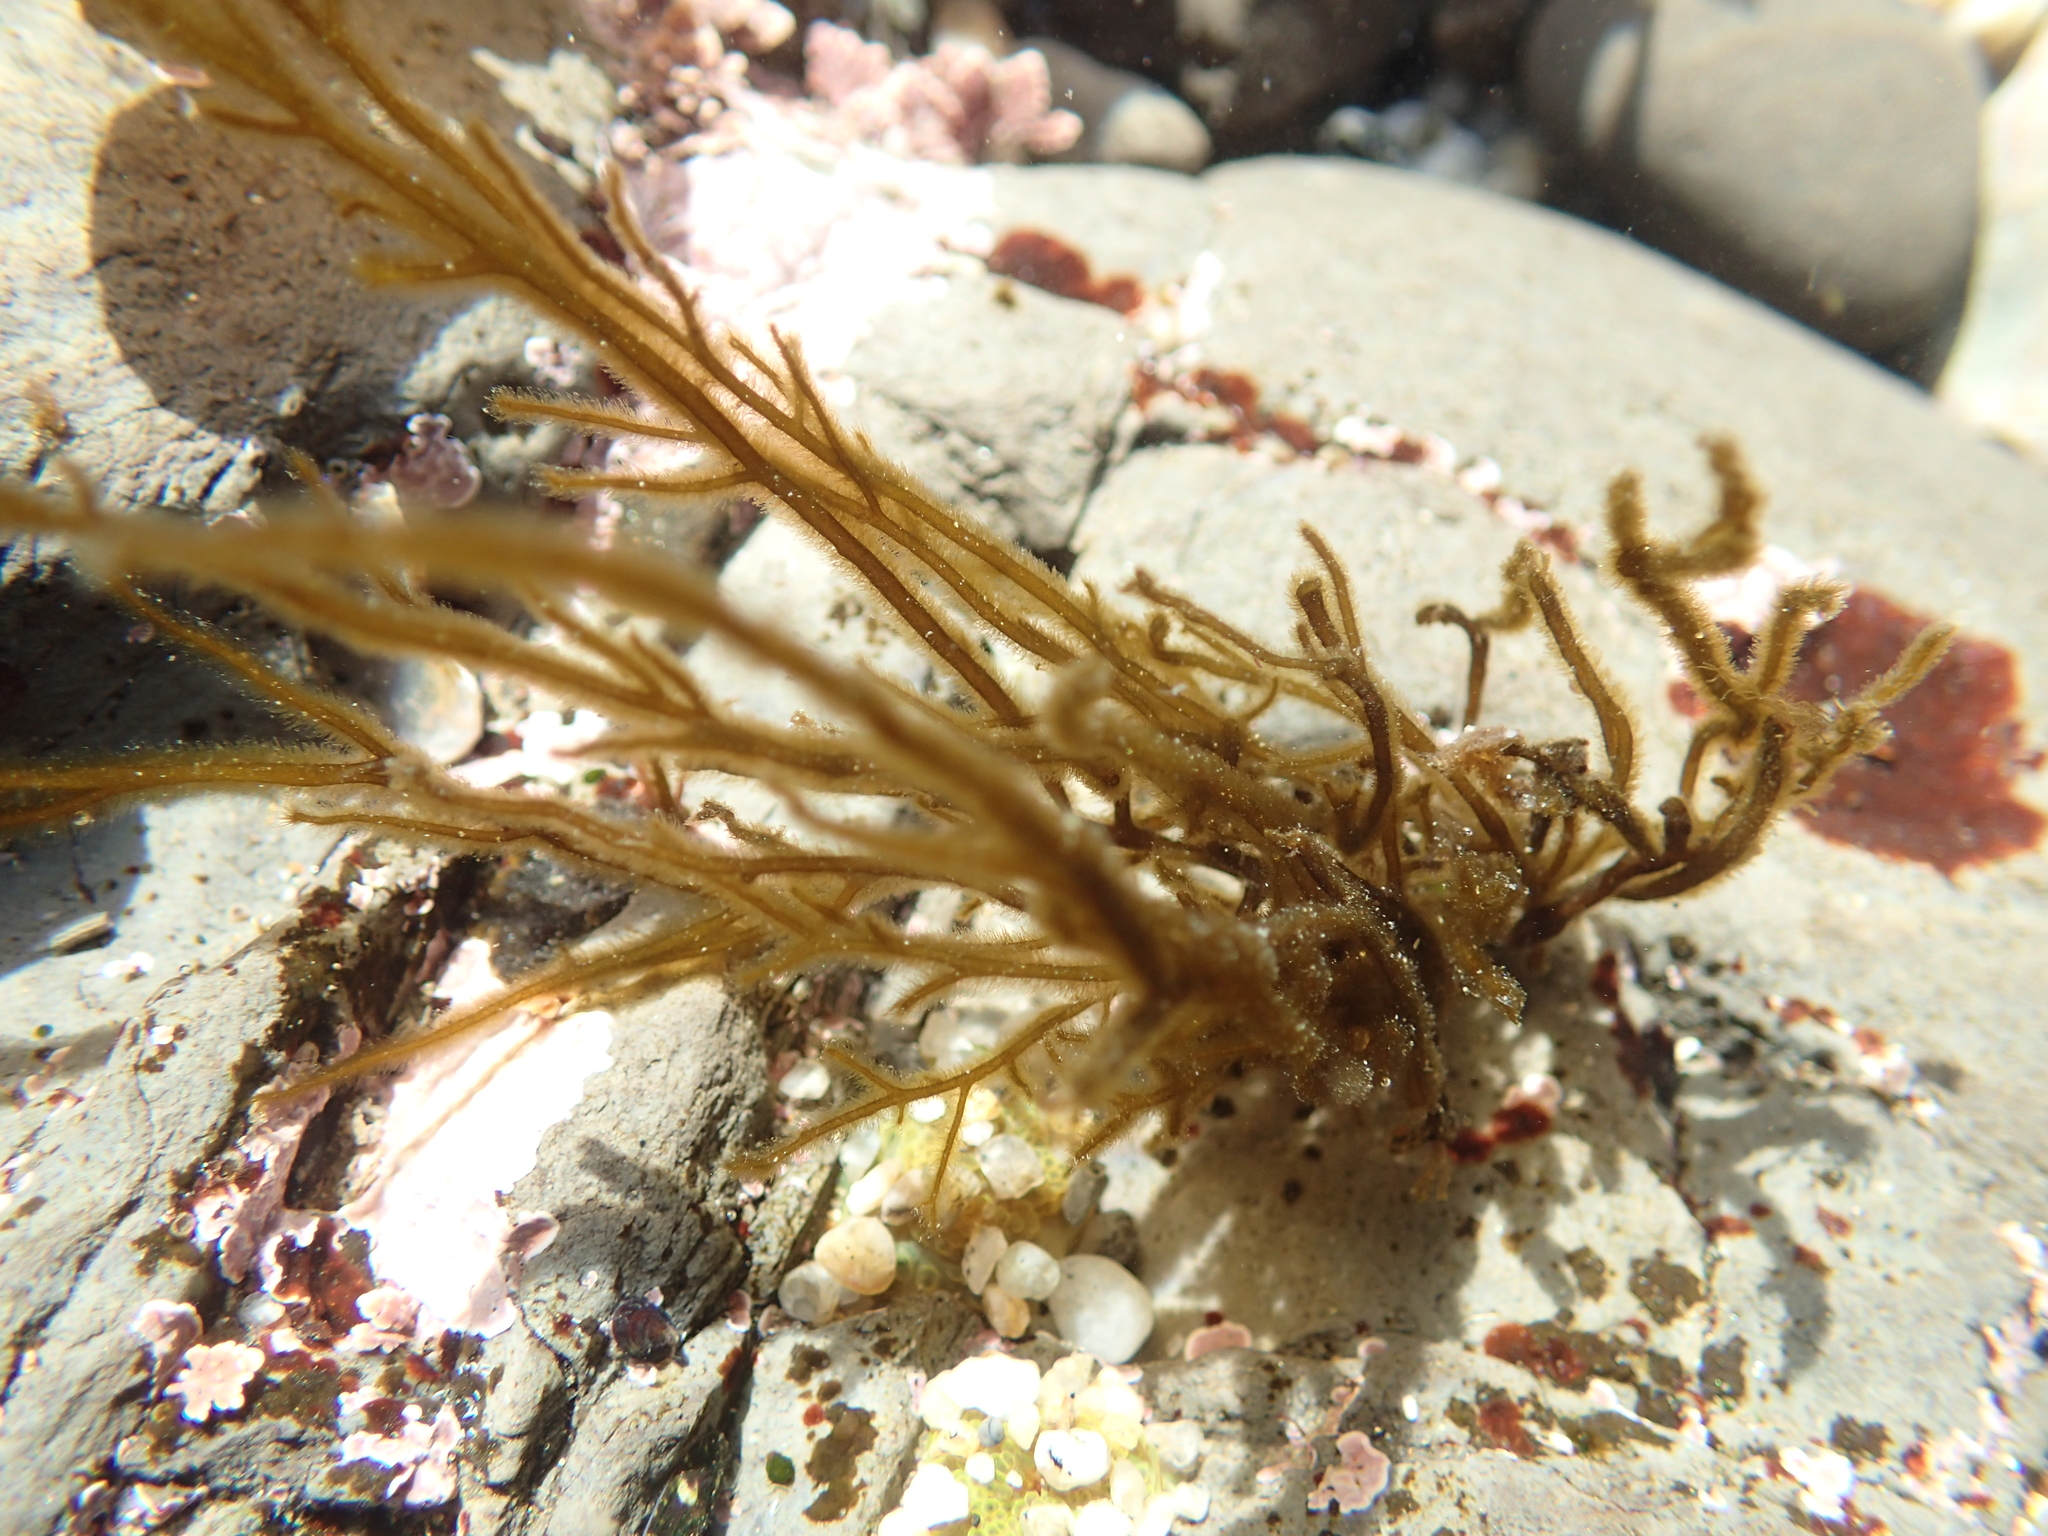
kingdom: Chromista
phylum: Ochrophyta
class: Phaeophyceae
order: Ectocarpales
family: Chordariaceae
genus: Haplogloia
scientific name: Haplogloia andersonii
